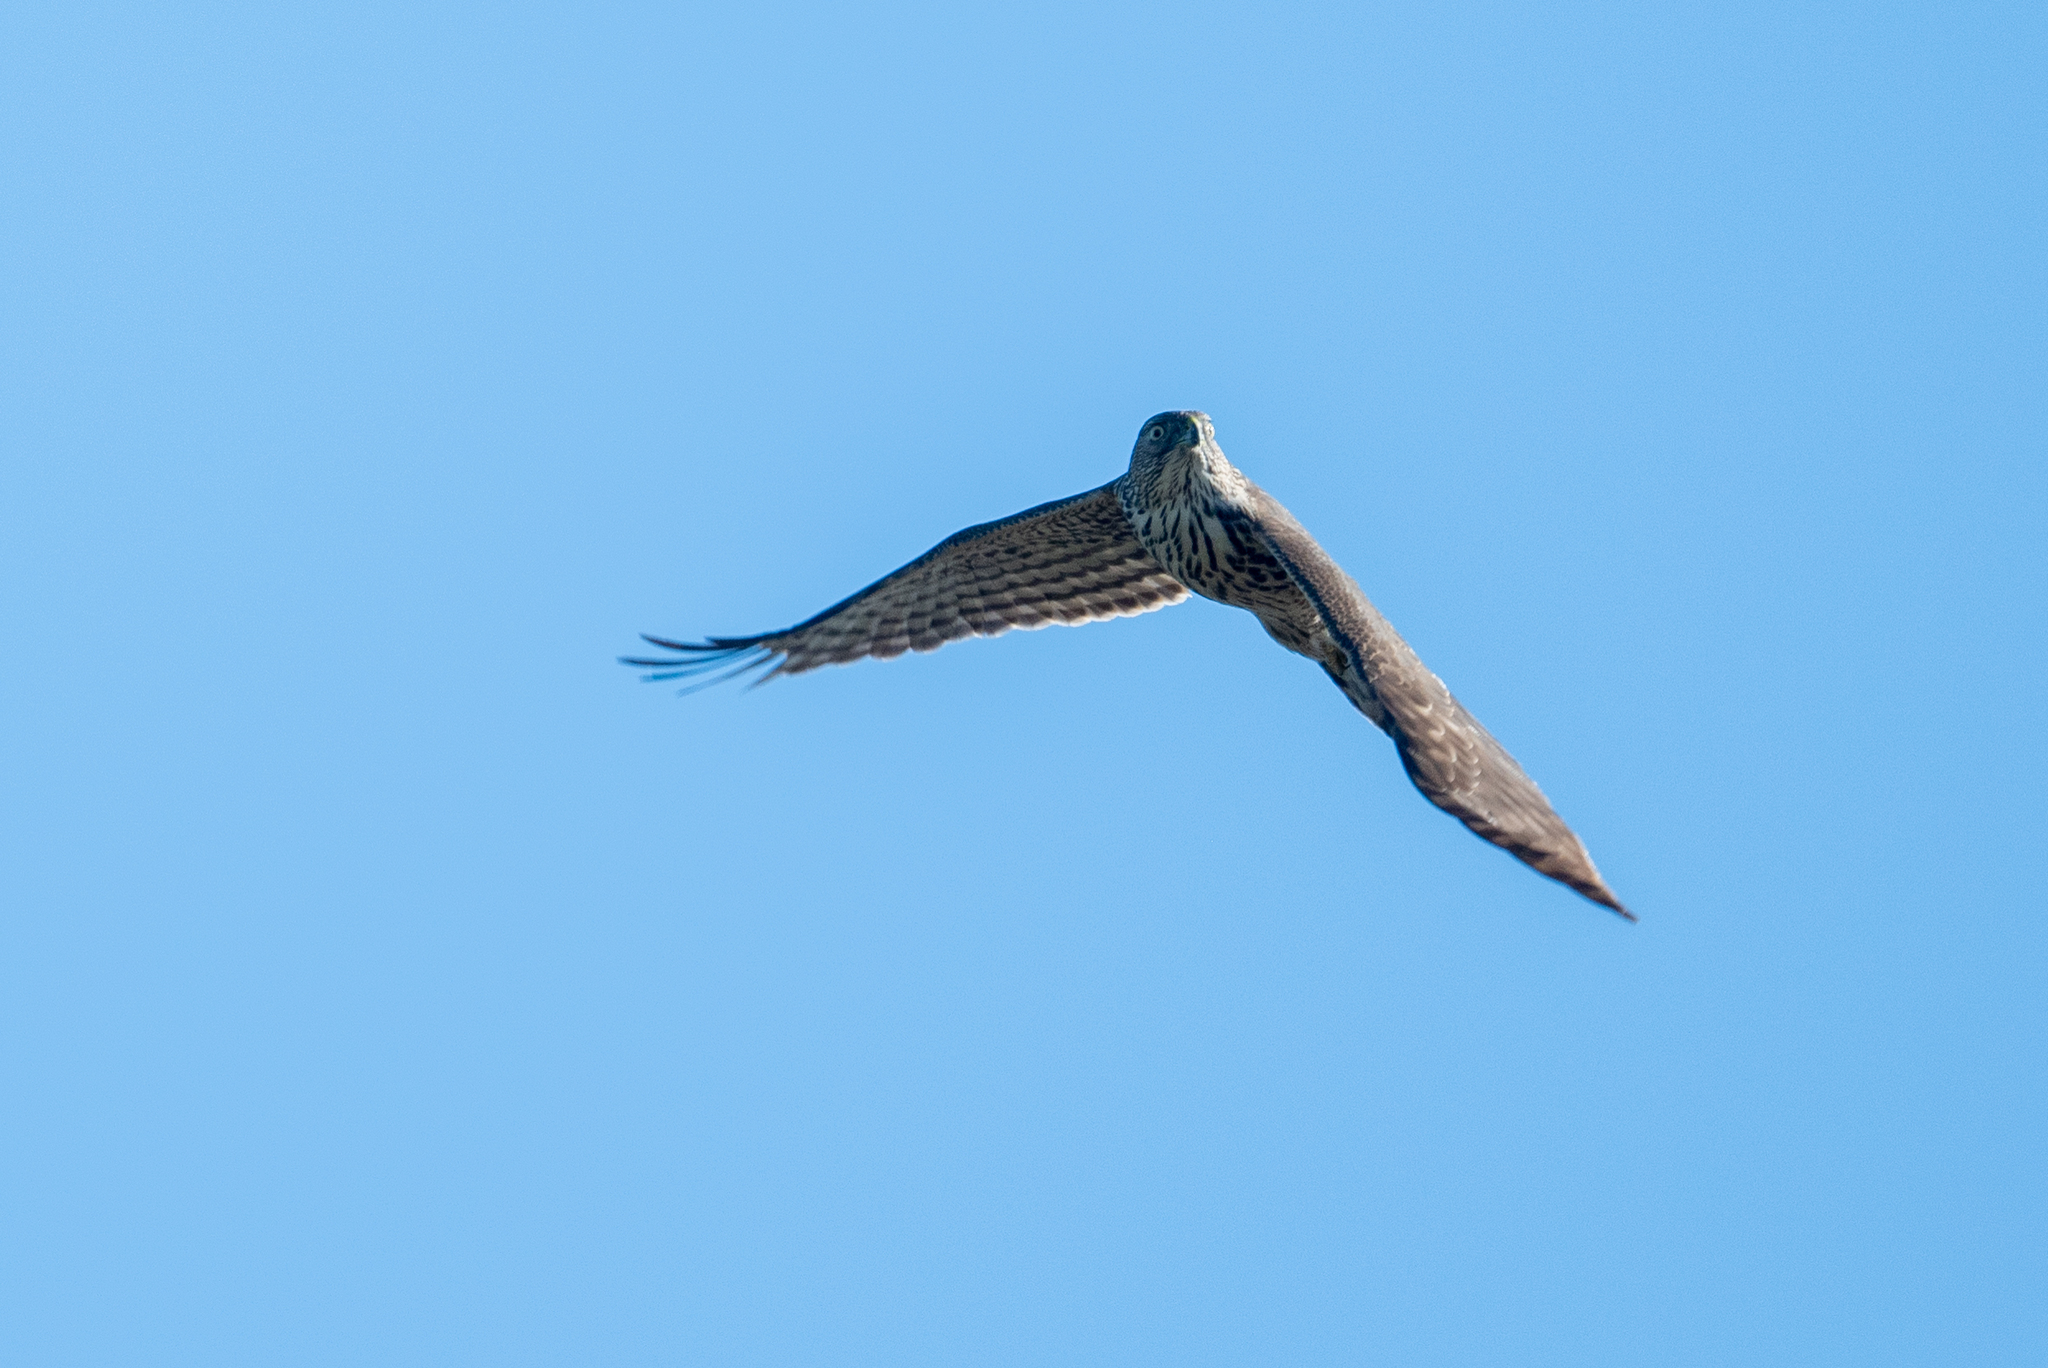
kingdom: Animalia
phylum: Chordata
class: Aves
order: Accipitriformes
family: Accipitridae
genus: Accipiter
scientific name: Accipiter cooperii
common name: Cooper's hawk
